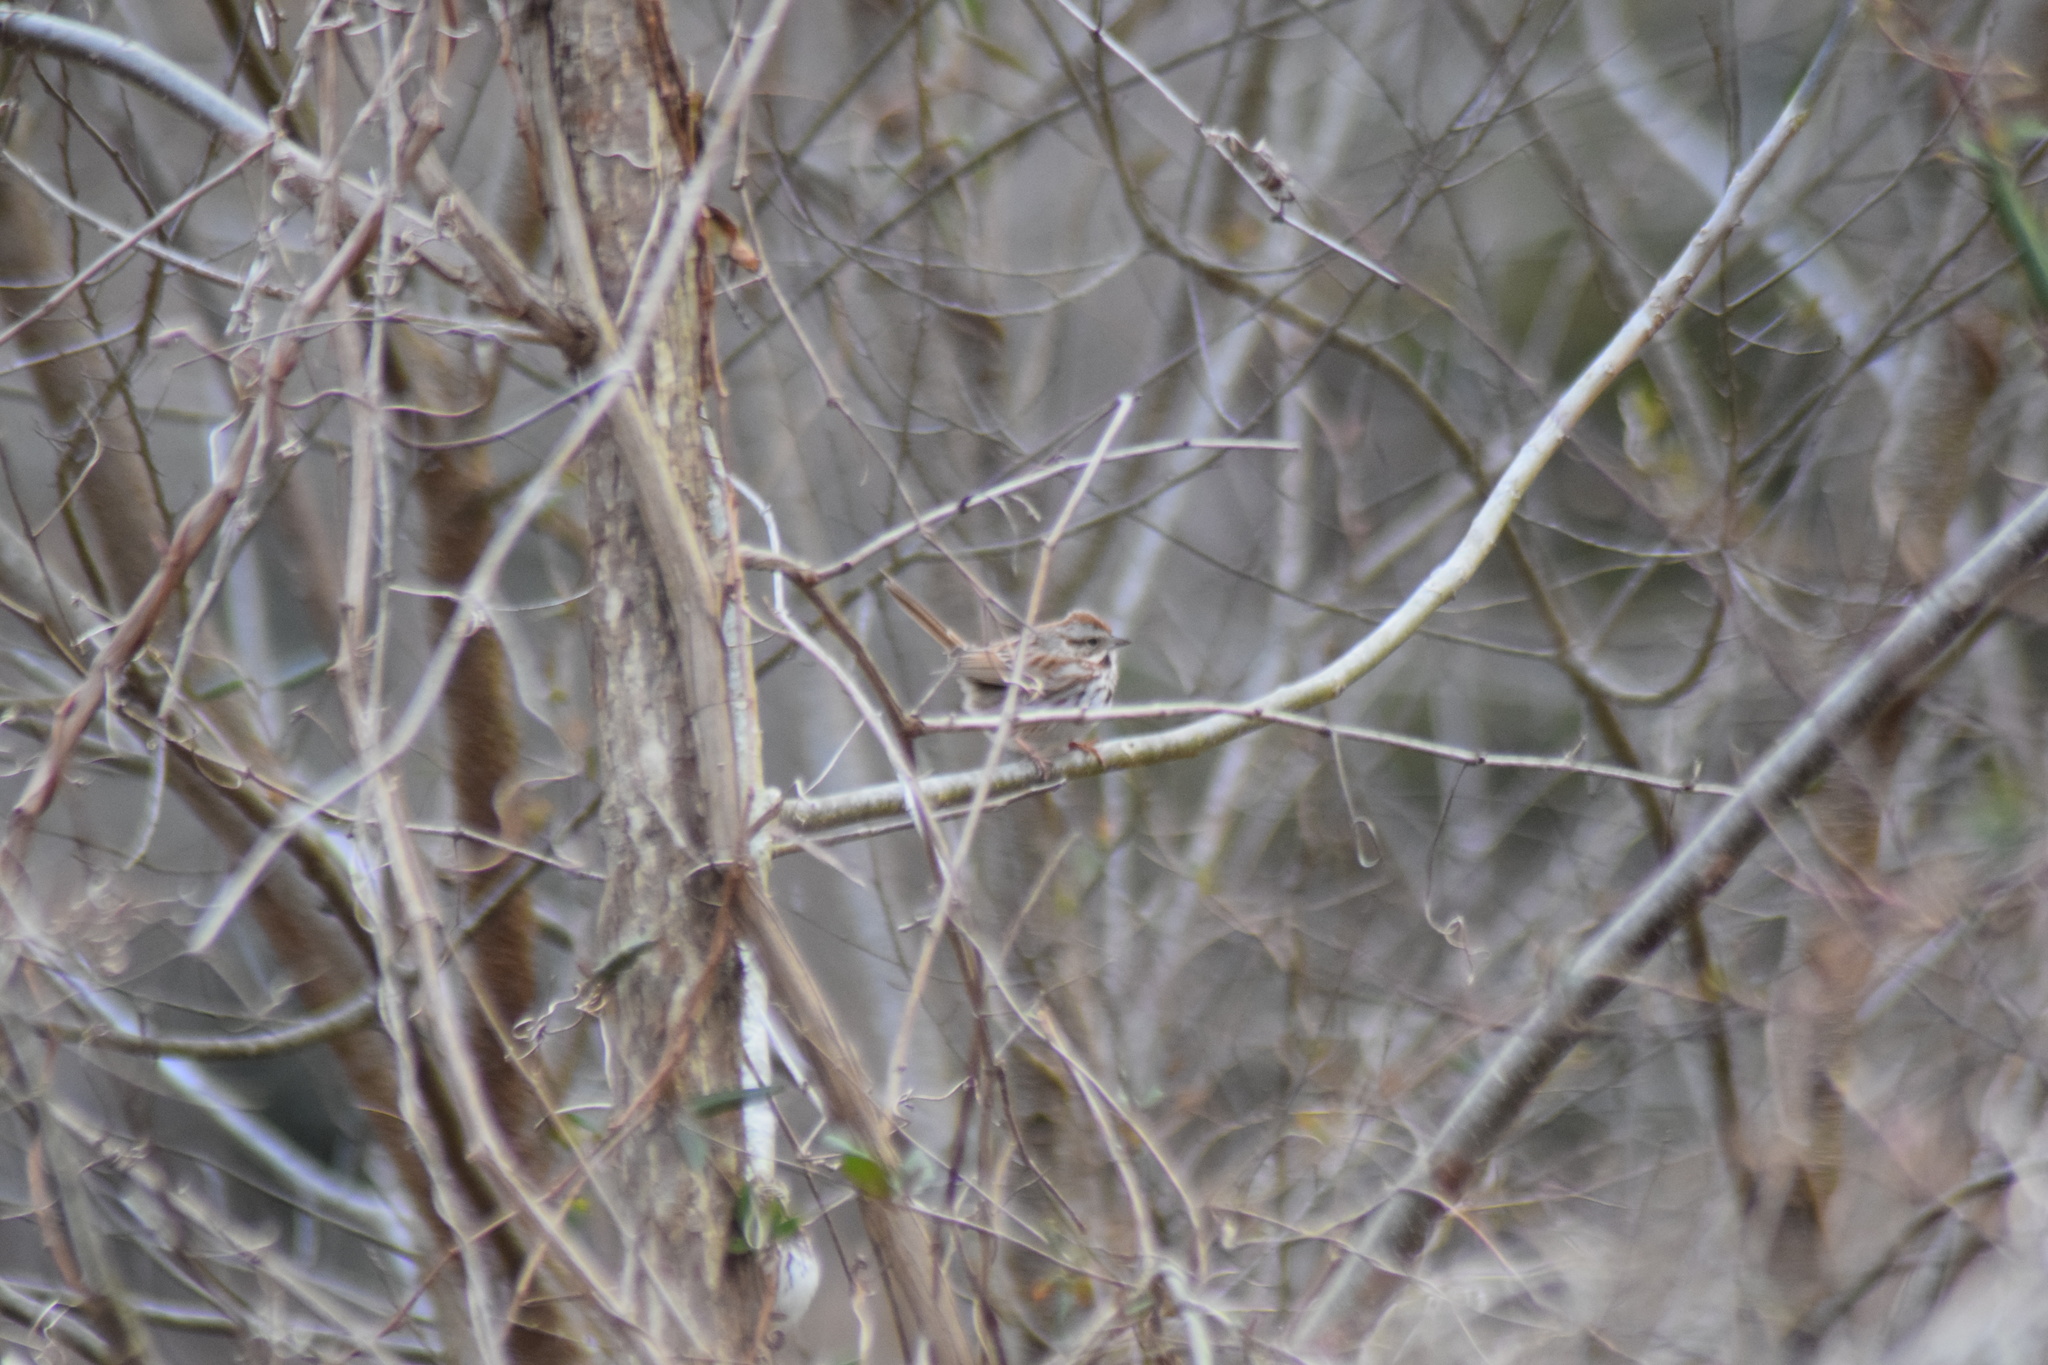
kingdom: Animalia
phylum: Chordata
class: Aves
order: Passeriformes
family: Passerellidae
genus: Melospiza
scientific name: Melospiza melodia
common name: Song sparrow
